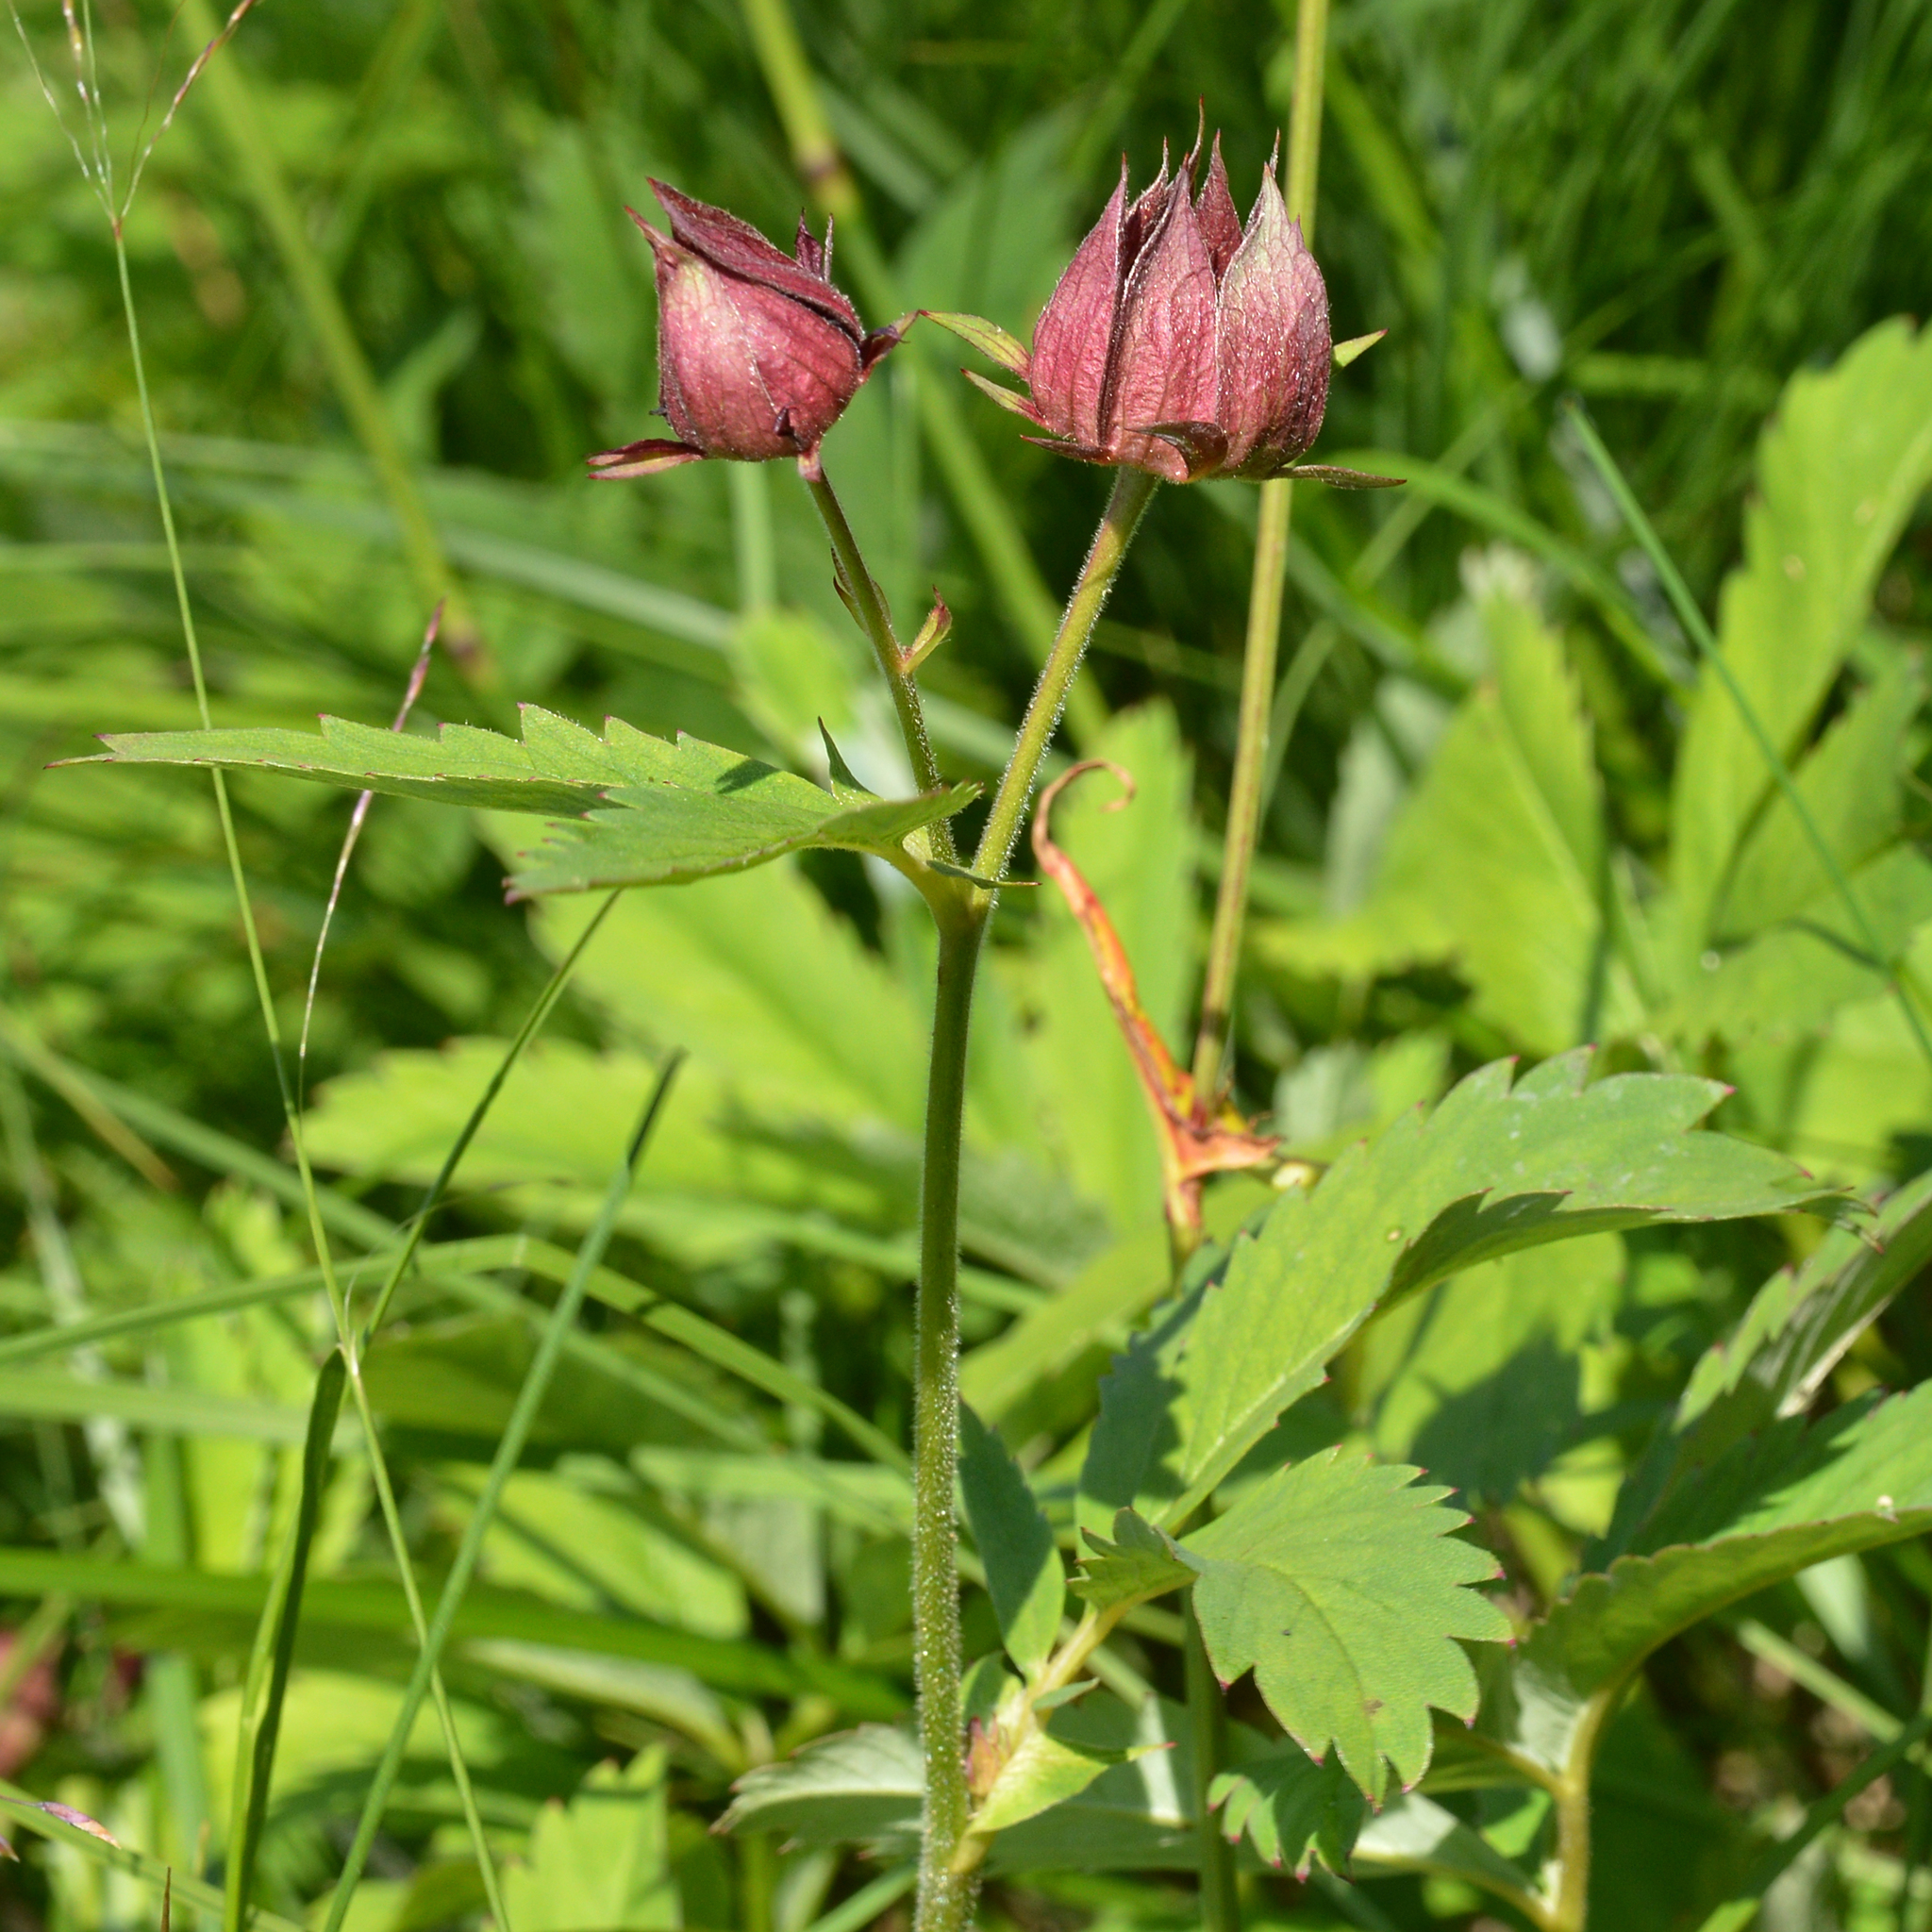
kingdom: Plantae
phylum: Tracheophyta
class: Magnoliopsida
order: Rosales
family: Rosaceae
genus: Comarum
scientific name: Comarum palustre
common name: Marsh cinquefoil
